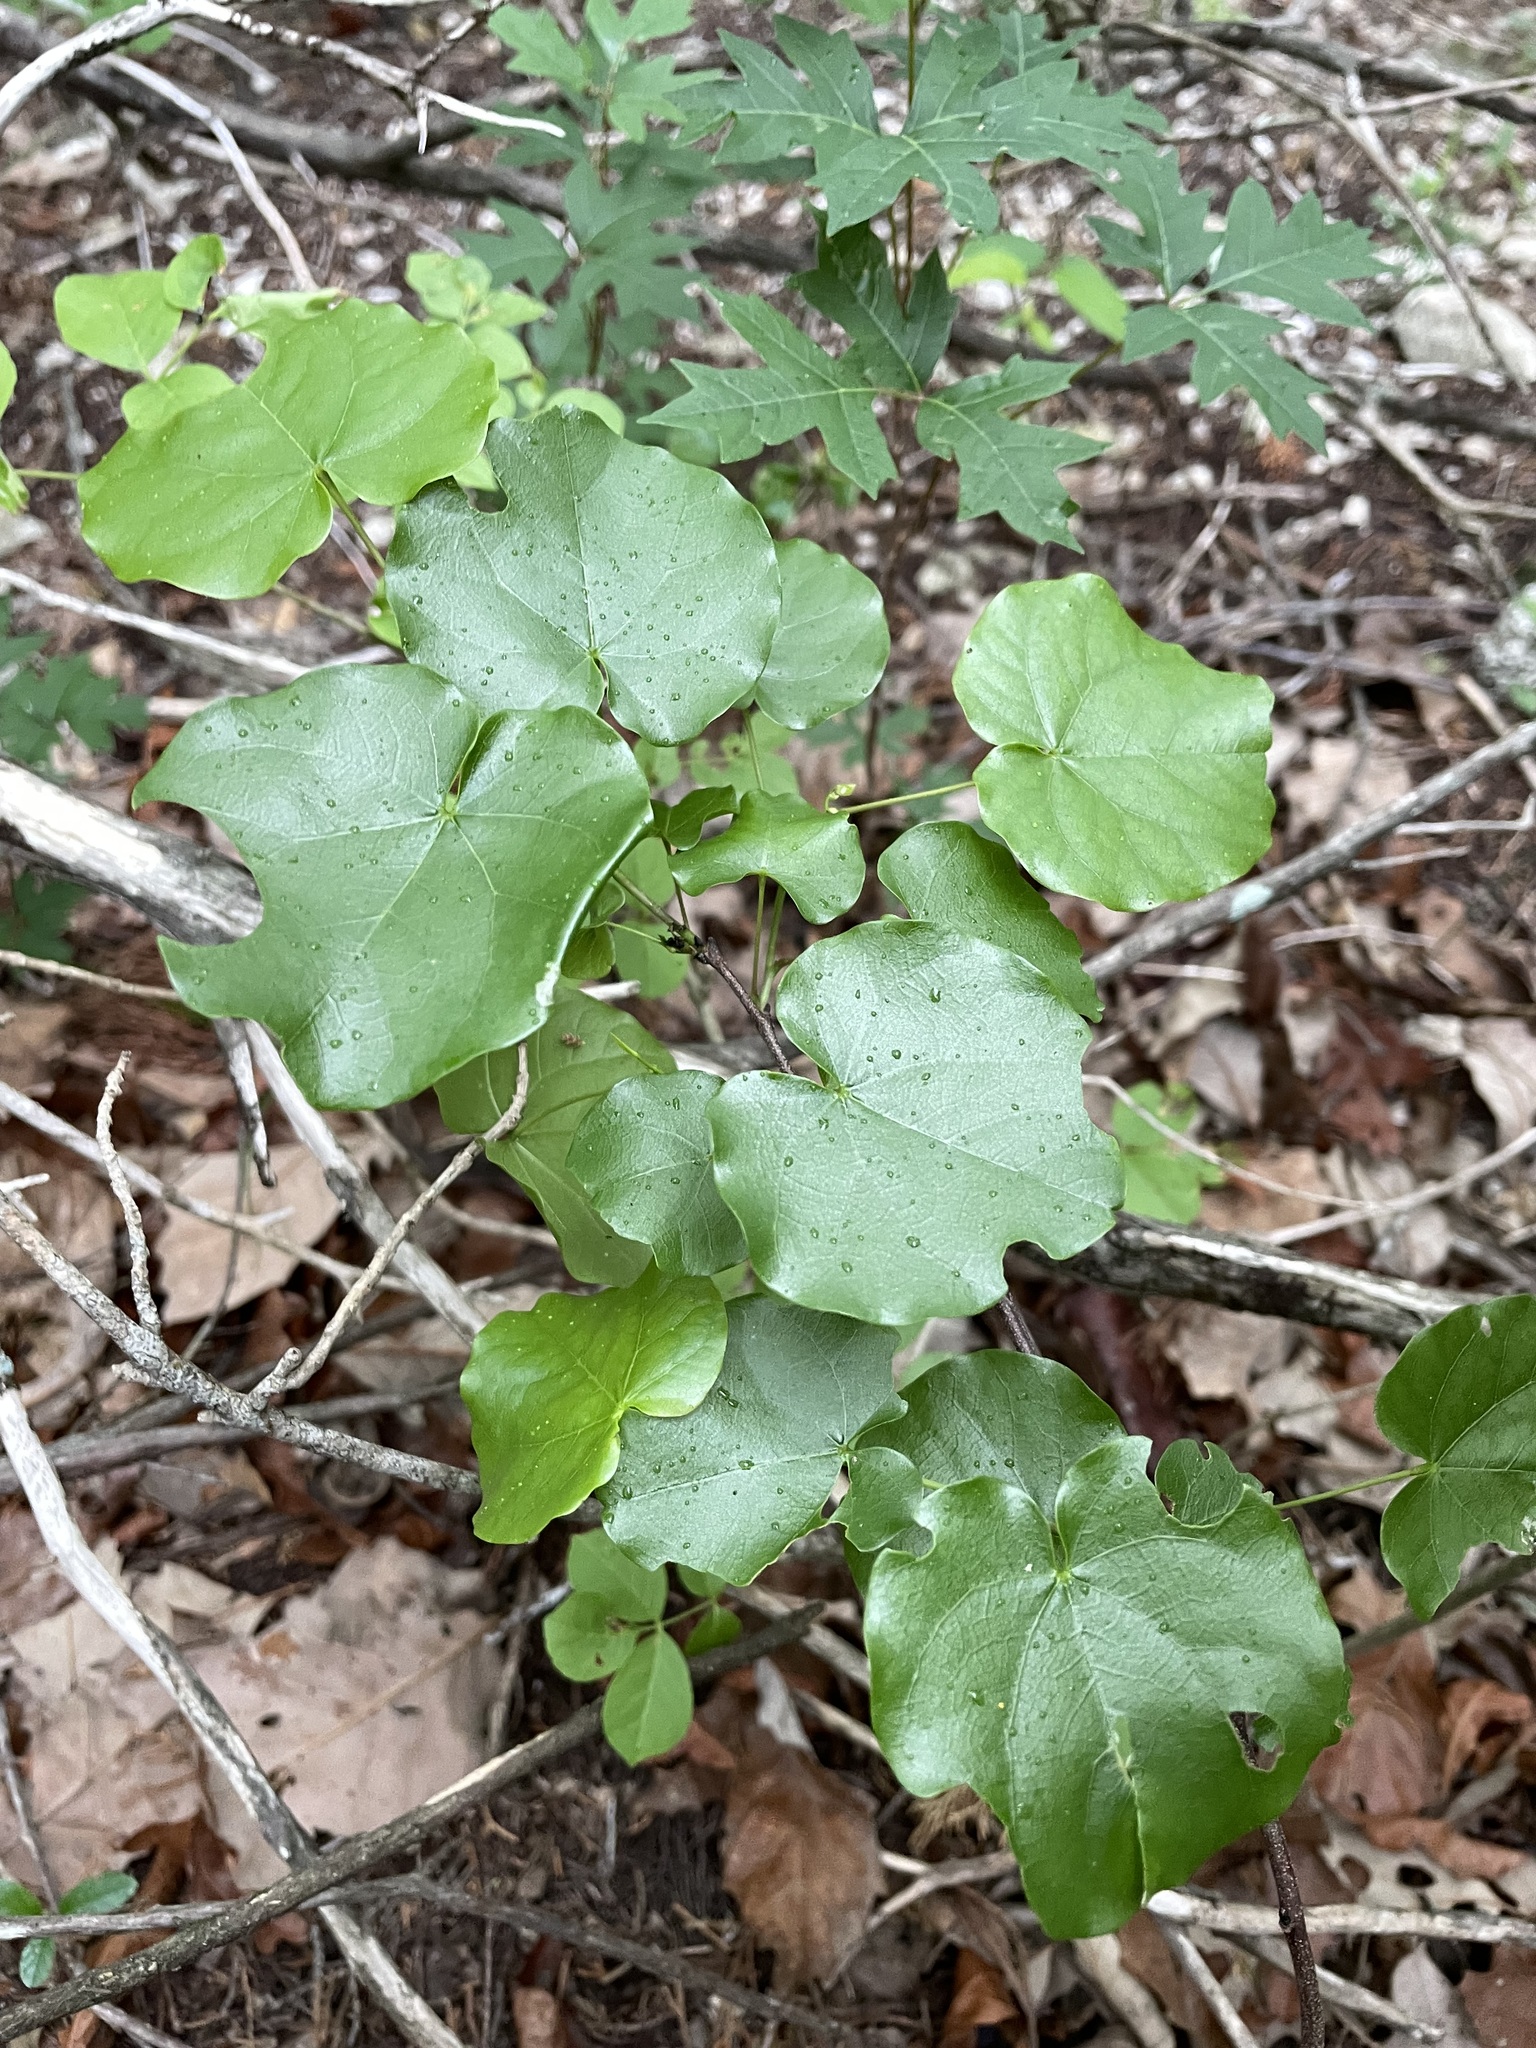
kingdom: Plantae
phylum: Tracheophyta
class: Magnoliopsida
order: Fabales
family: Fabaceae
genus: Cercis
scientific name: Cercis canadensis
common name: Eastern redbud
